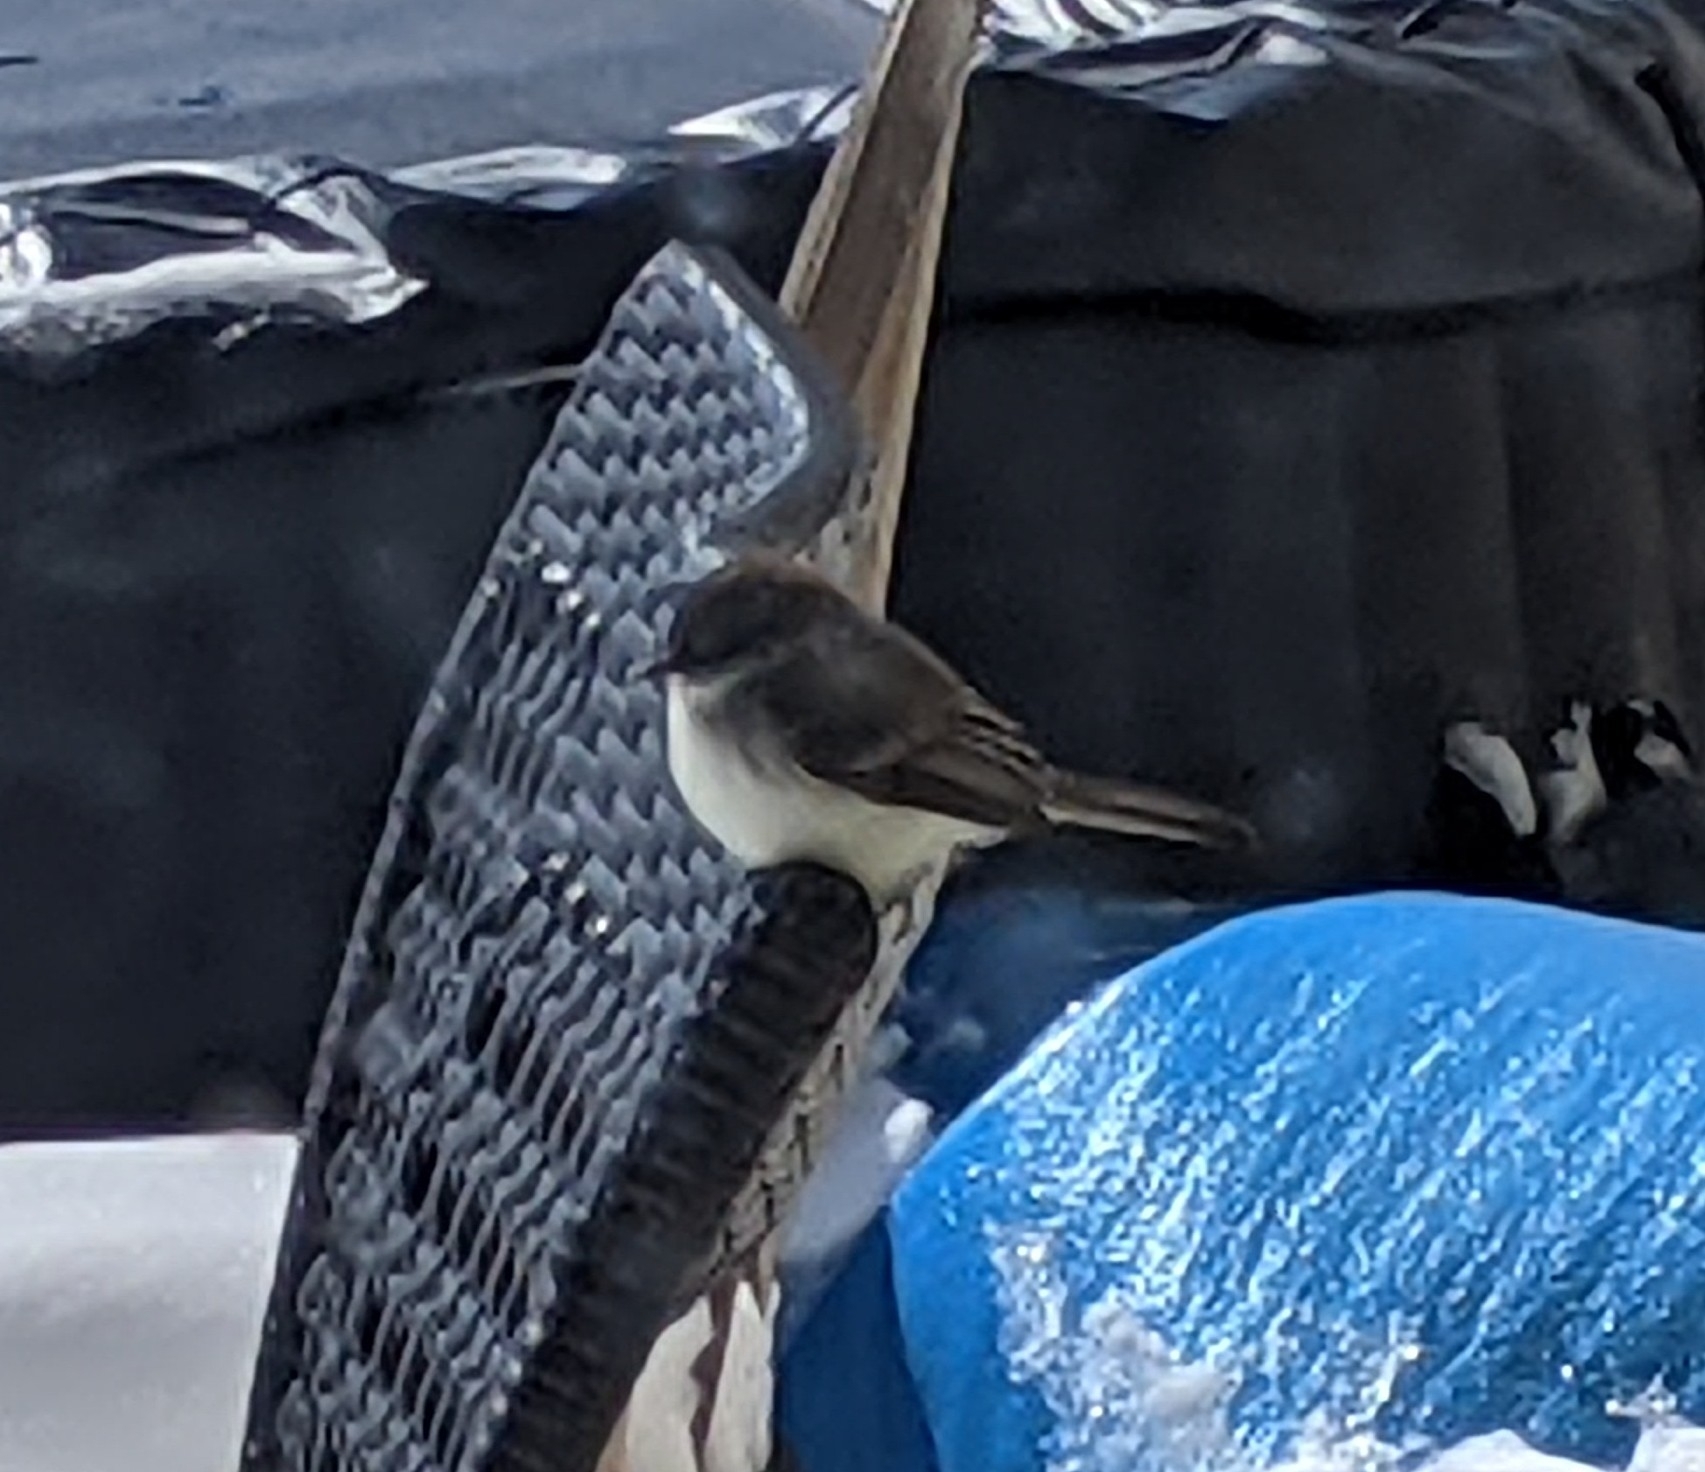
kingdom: Animalia
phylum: Chordata
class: Aves
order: Passeriformes
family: Tyrannidae
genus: Sayornis
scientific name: Sayornis phoebe
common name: Eastern phoebe
